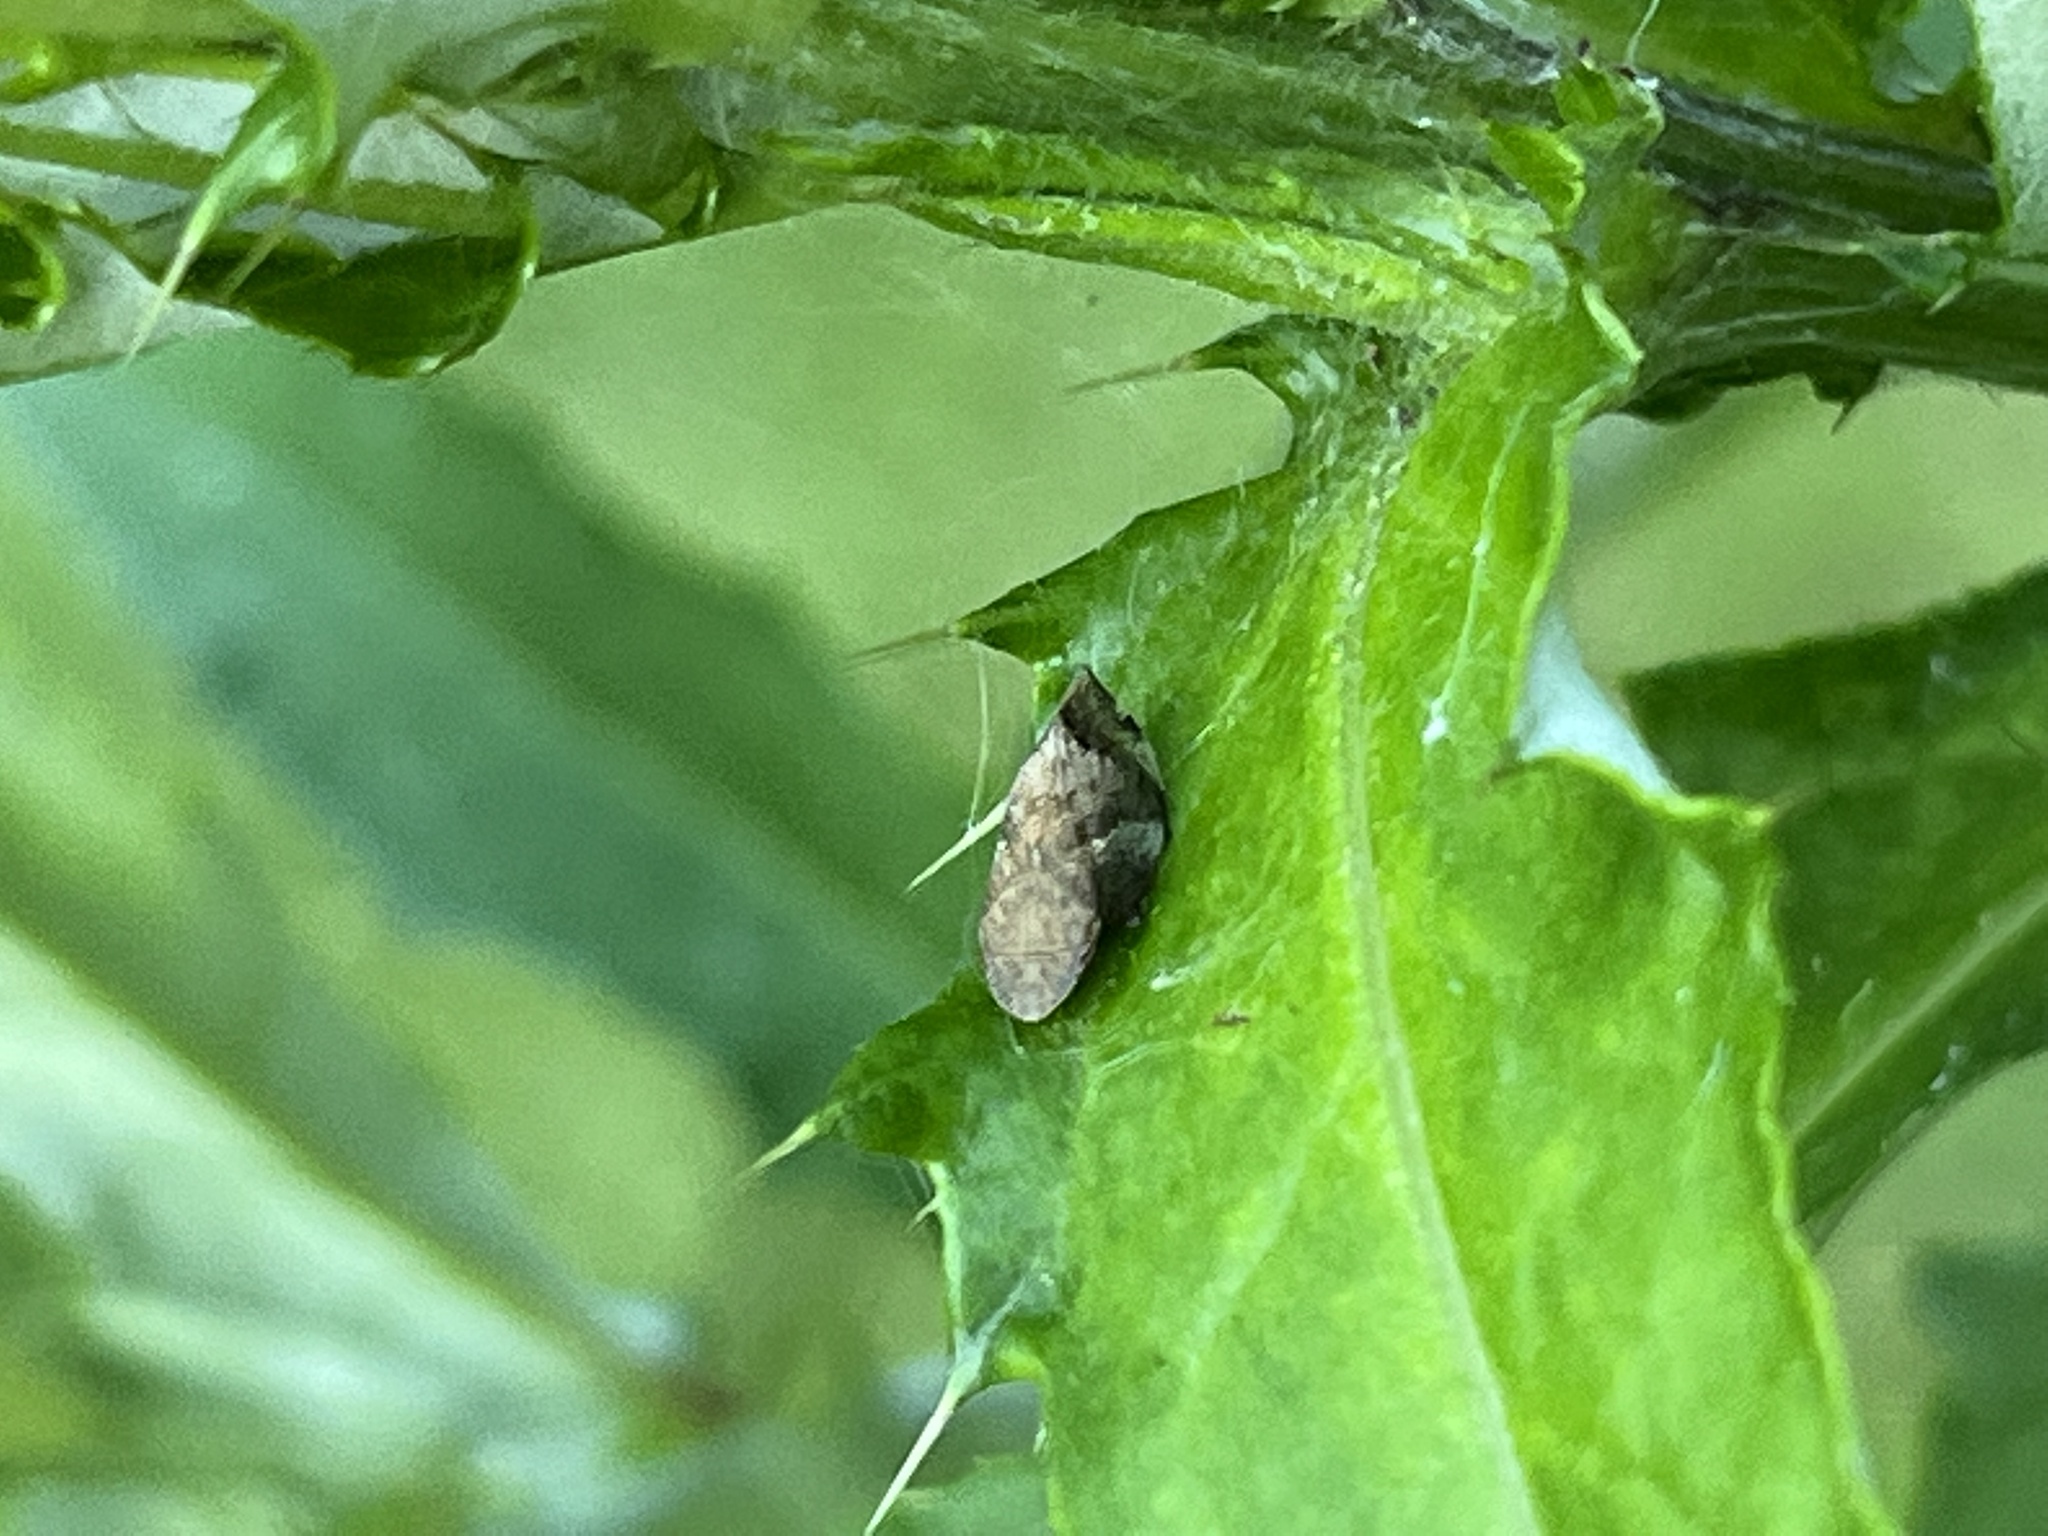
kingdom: Animalia
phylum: Arthropoda
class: Insecta
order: Hemiptera
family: Aphrophoridae
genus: Lepyronia
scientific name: Lepyronia quadrangularis
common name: Diamond-backed spittlebug
